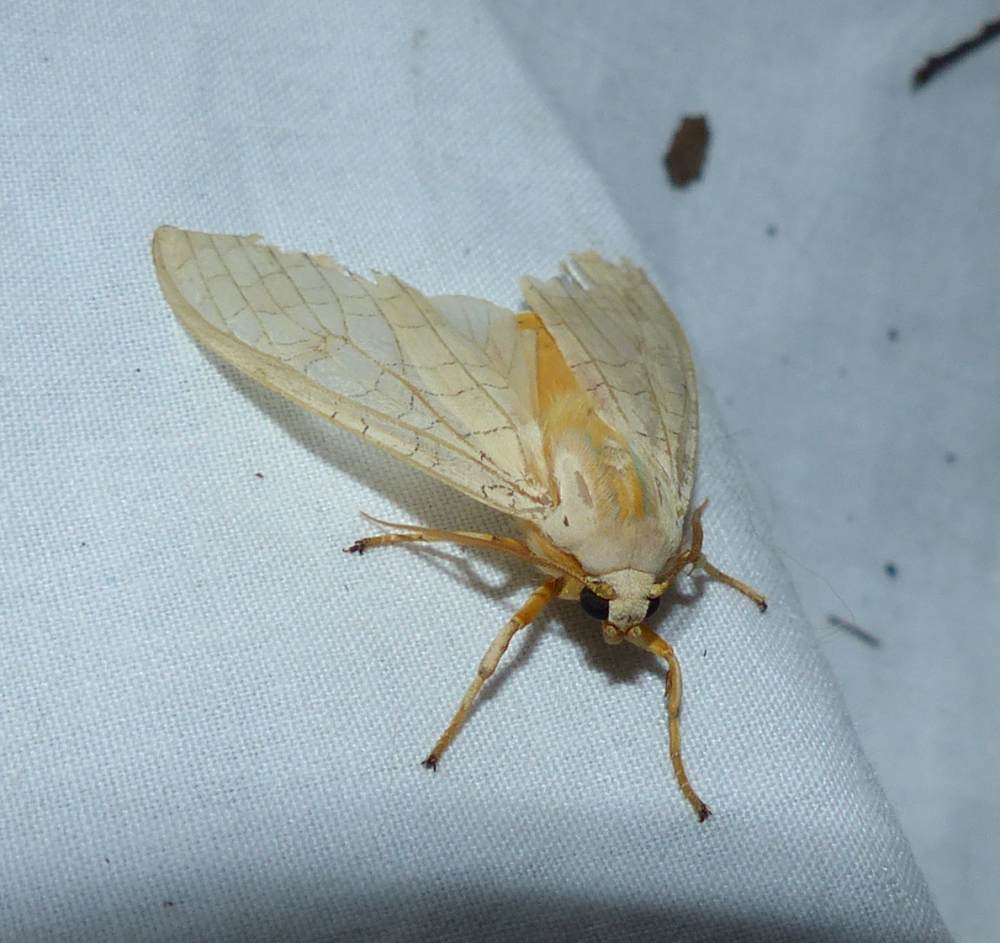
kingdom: Animalia
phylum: Arthropoda
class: Insecta
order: Lepidoptera
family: Erebidae
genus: Halysidota
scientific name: Halysidota tessellaris
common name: Banded tussock moth
